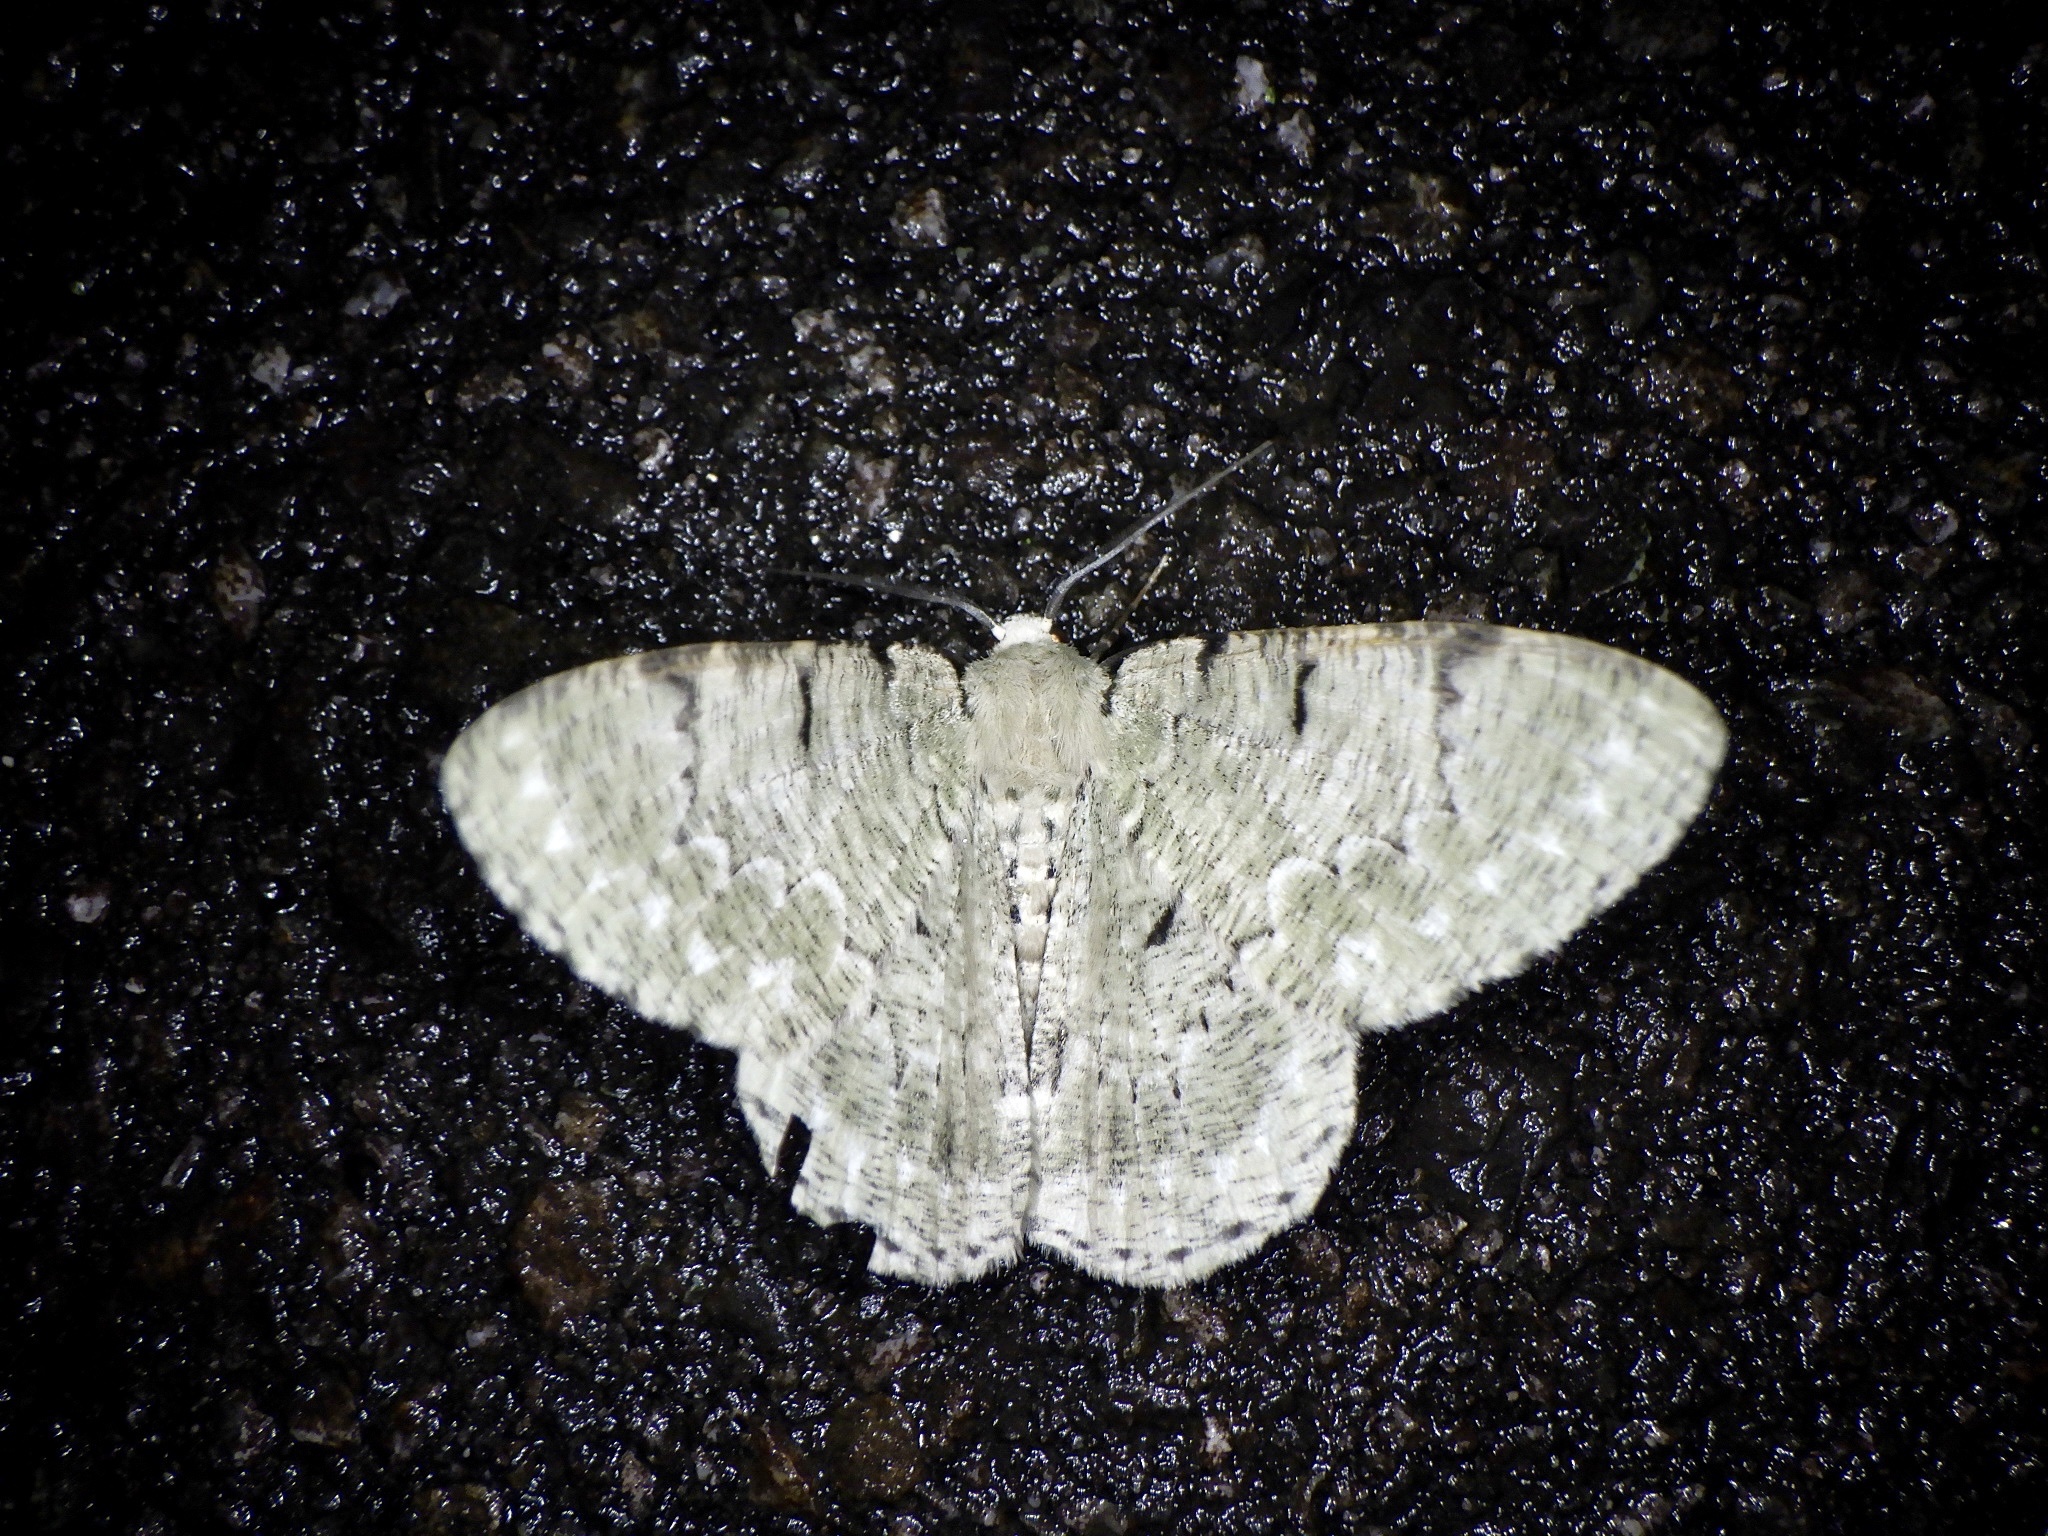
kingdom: Animalia
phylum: Arthropoda
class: Insecta
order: Lepidoptera
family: Geometridae
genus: Pachista
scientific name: Pachista superans
